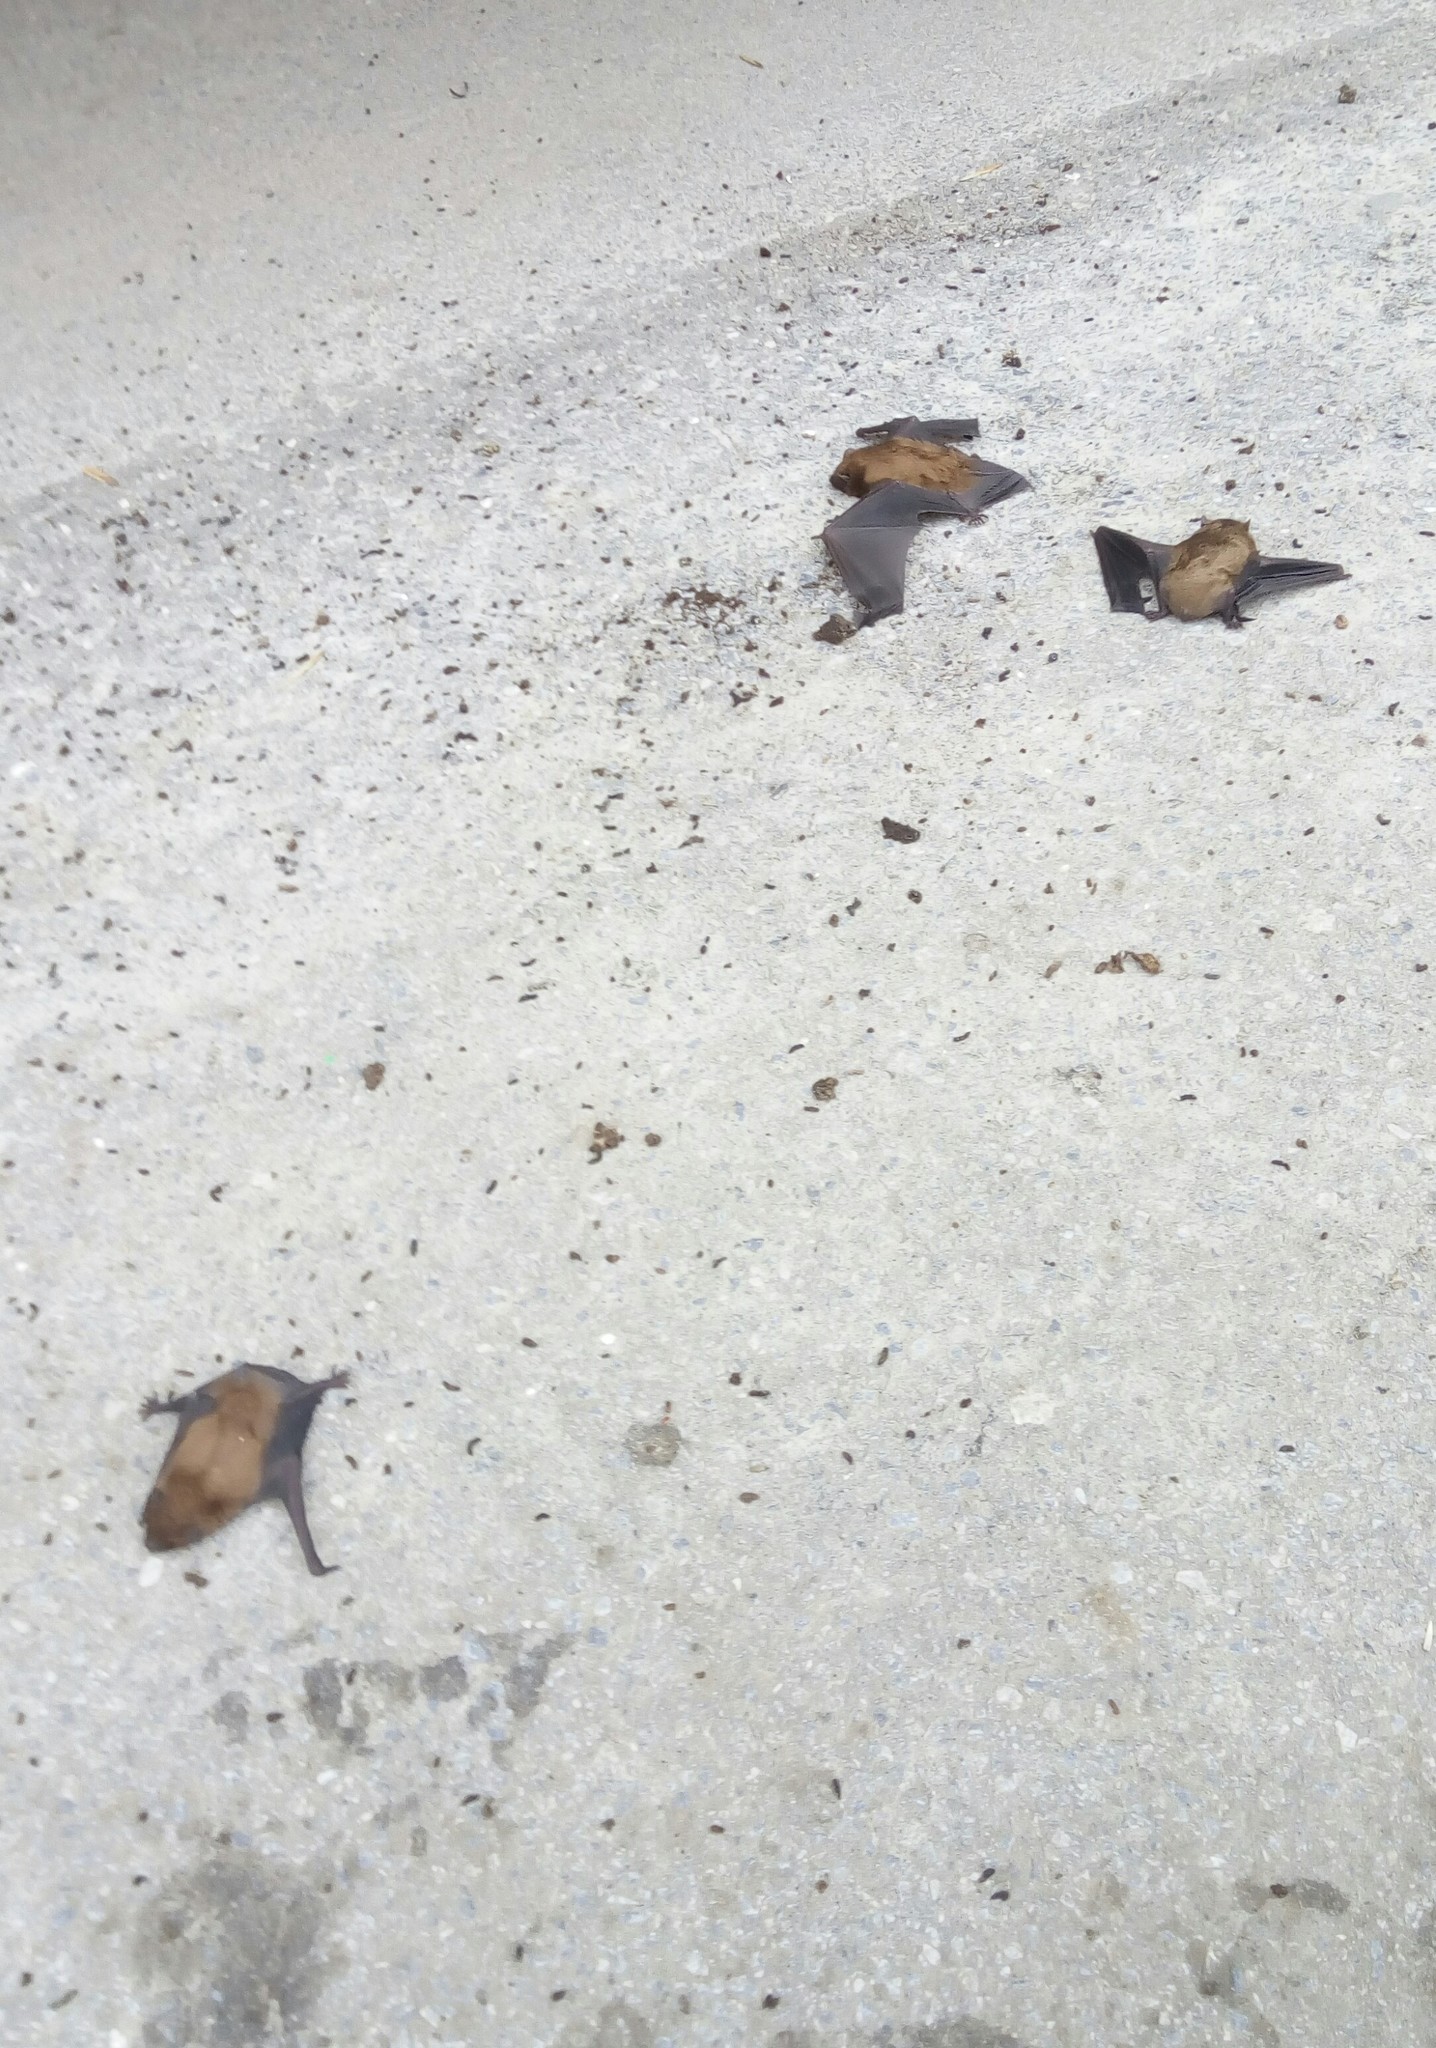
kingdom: Animalia
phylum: Chordata
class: Mammalia
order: Chiroptera
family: Vespertilionidae
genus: Nyctalus
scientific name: Nyctalus noctula
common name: Noctule
